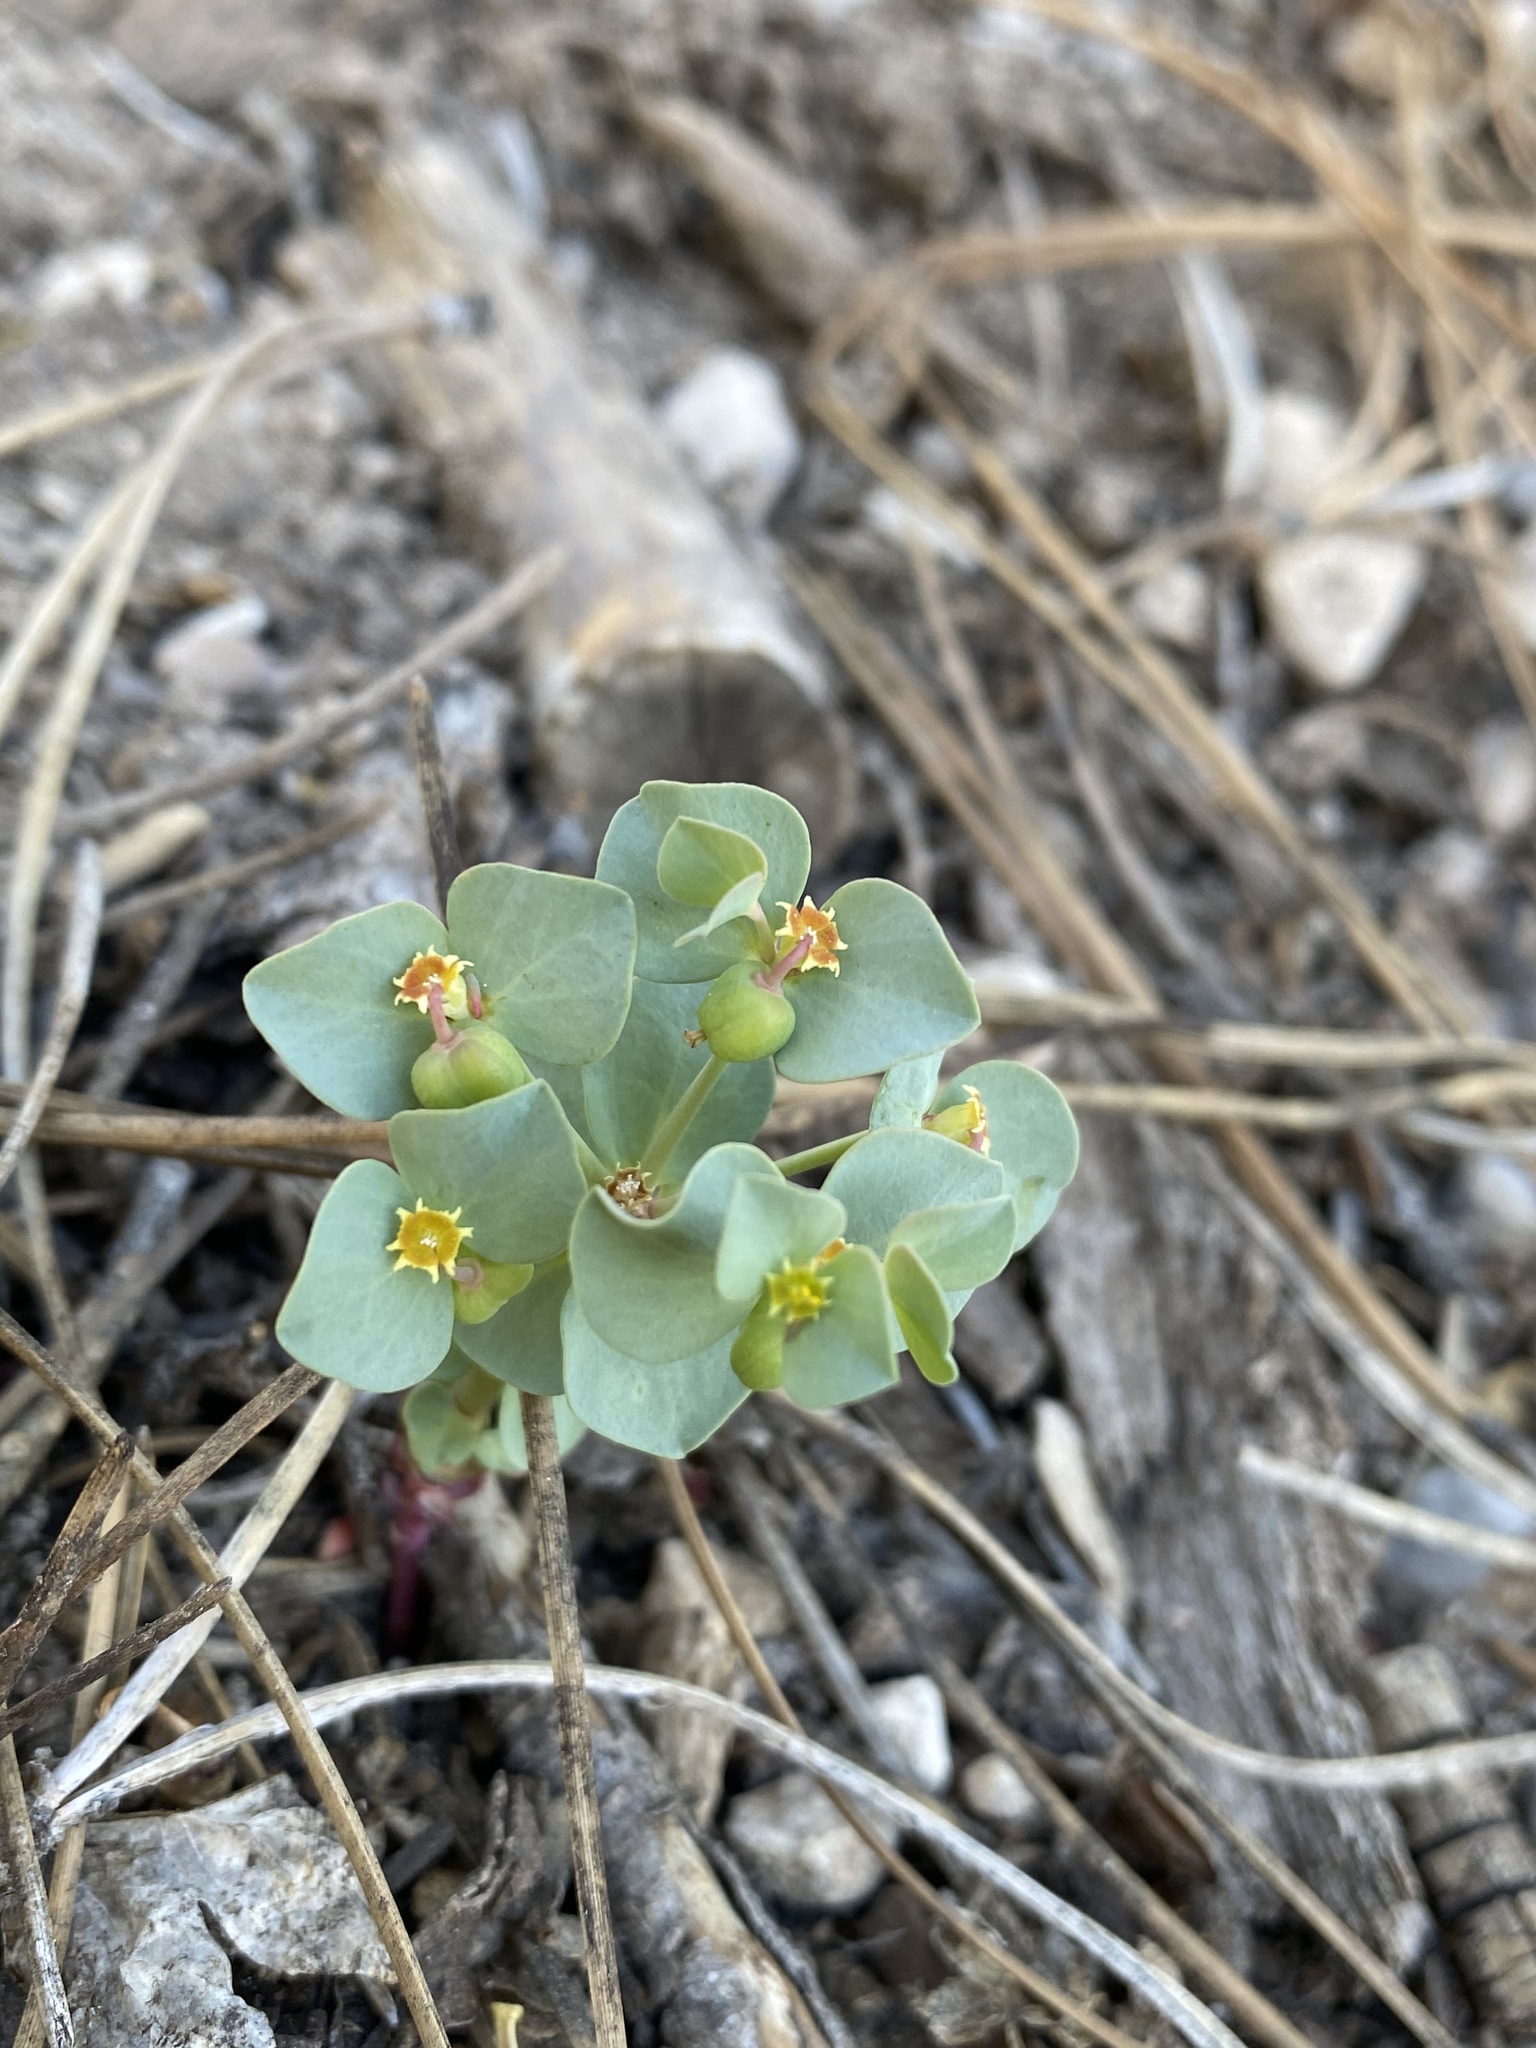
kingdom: Plantae
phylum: Tracheophyta
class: Magnoliopsida
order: Malpighiales
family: Euphorbiaceae
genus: Euphorbia
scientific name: Euphorbia brachycera
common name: Shorthorn spurge
